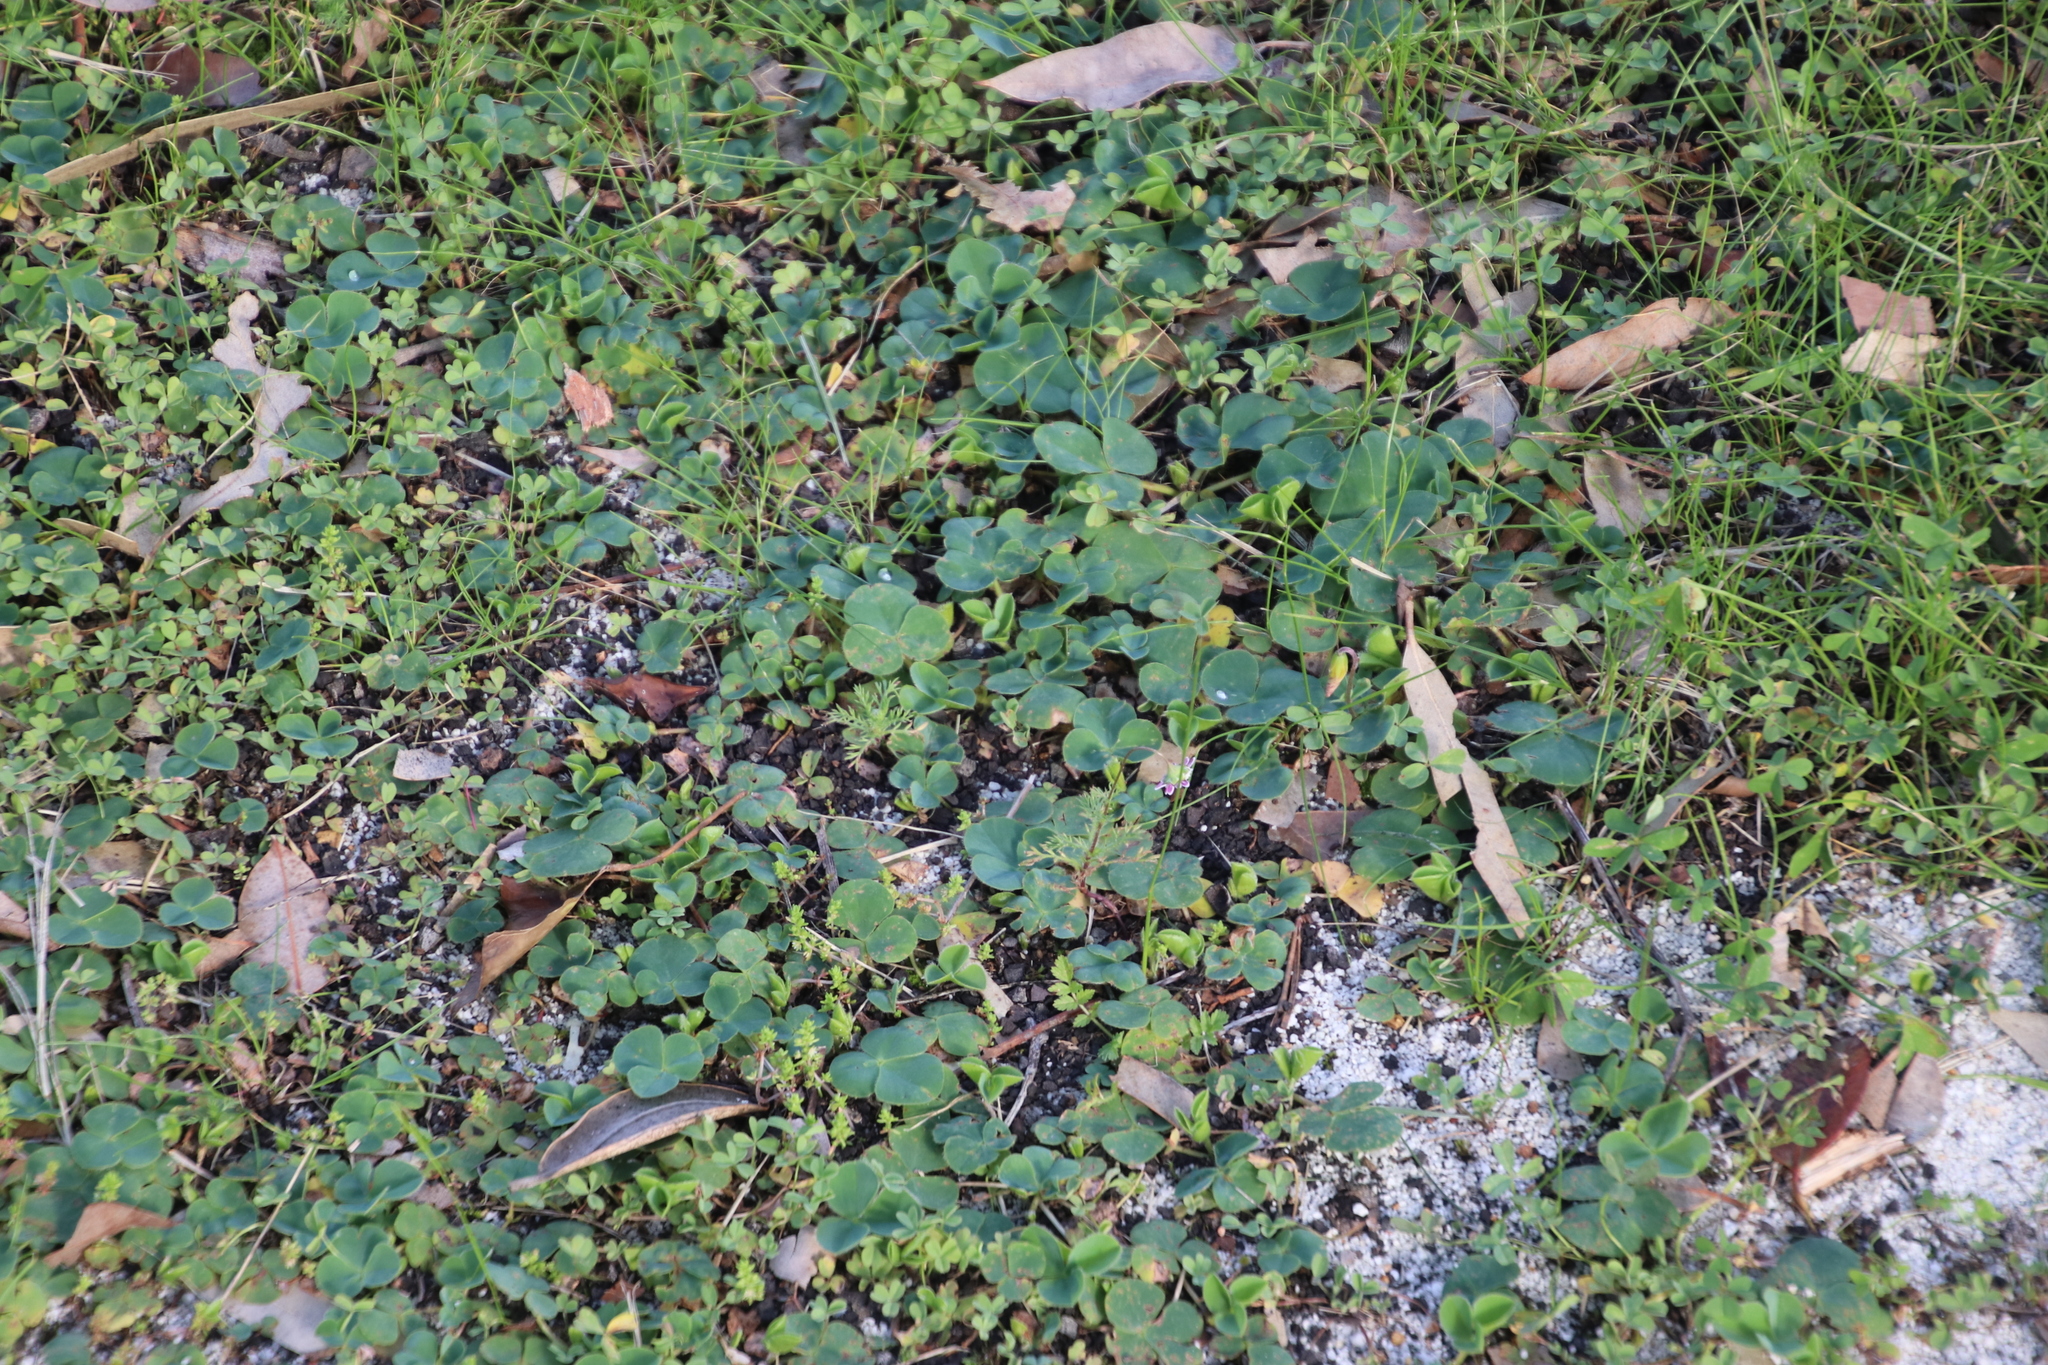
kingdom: Plantae
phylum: Tracheophyta
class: Magnoliopsida
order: Oxalidales
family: Oxalidaceae
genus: Oxalis
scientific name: Oxalis purpurea
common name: Purple woodsorrel
